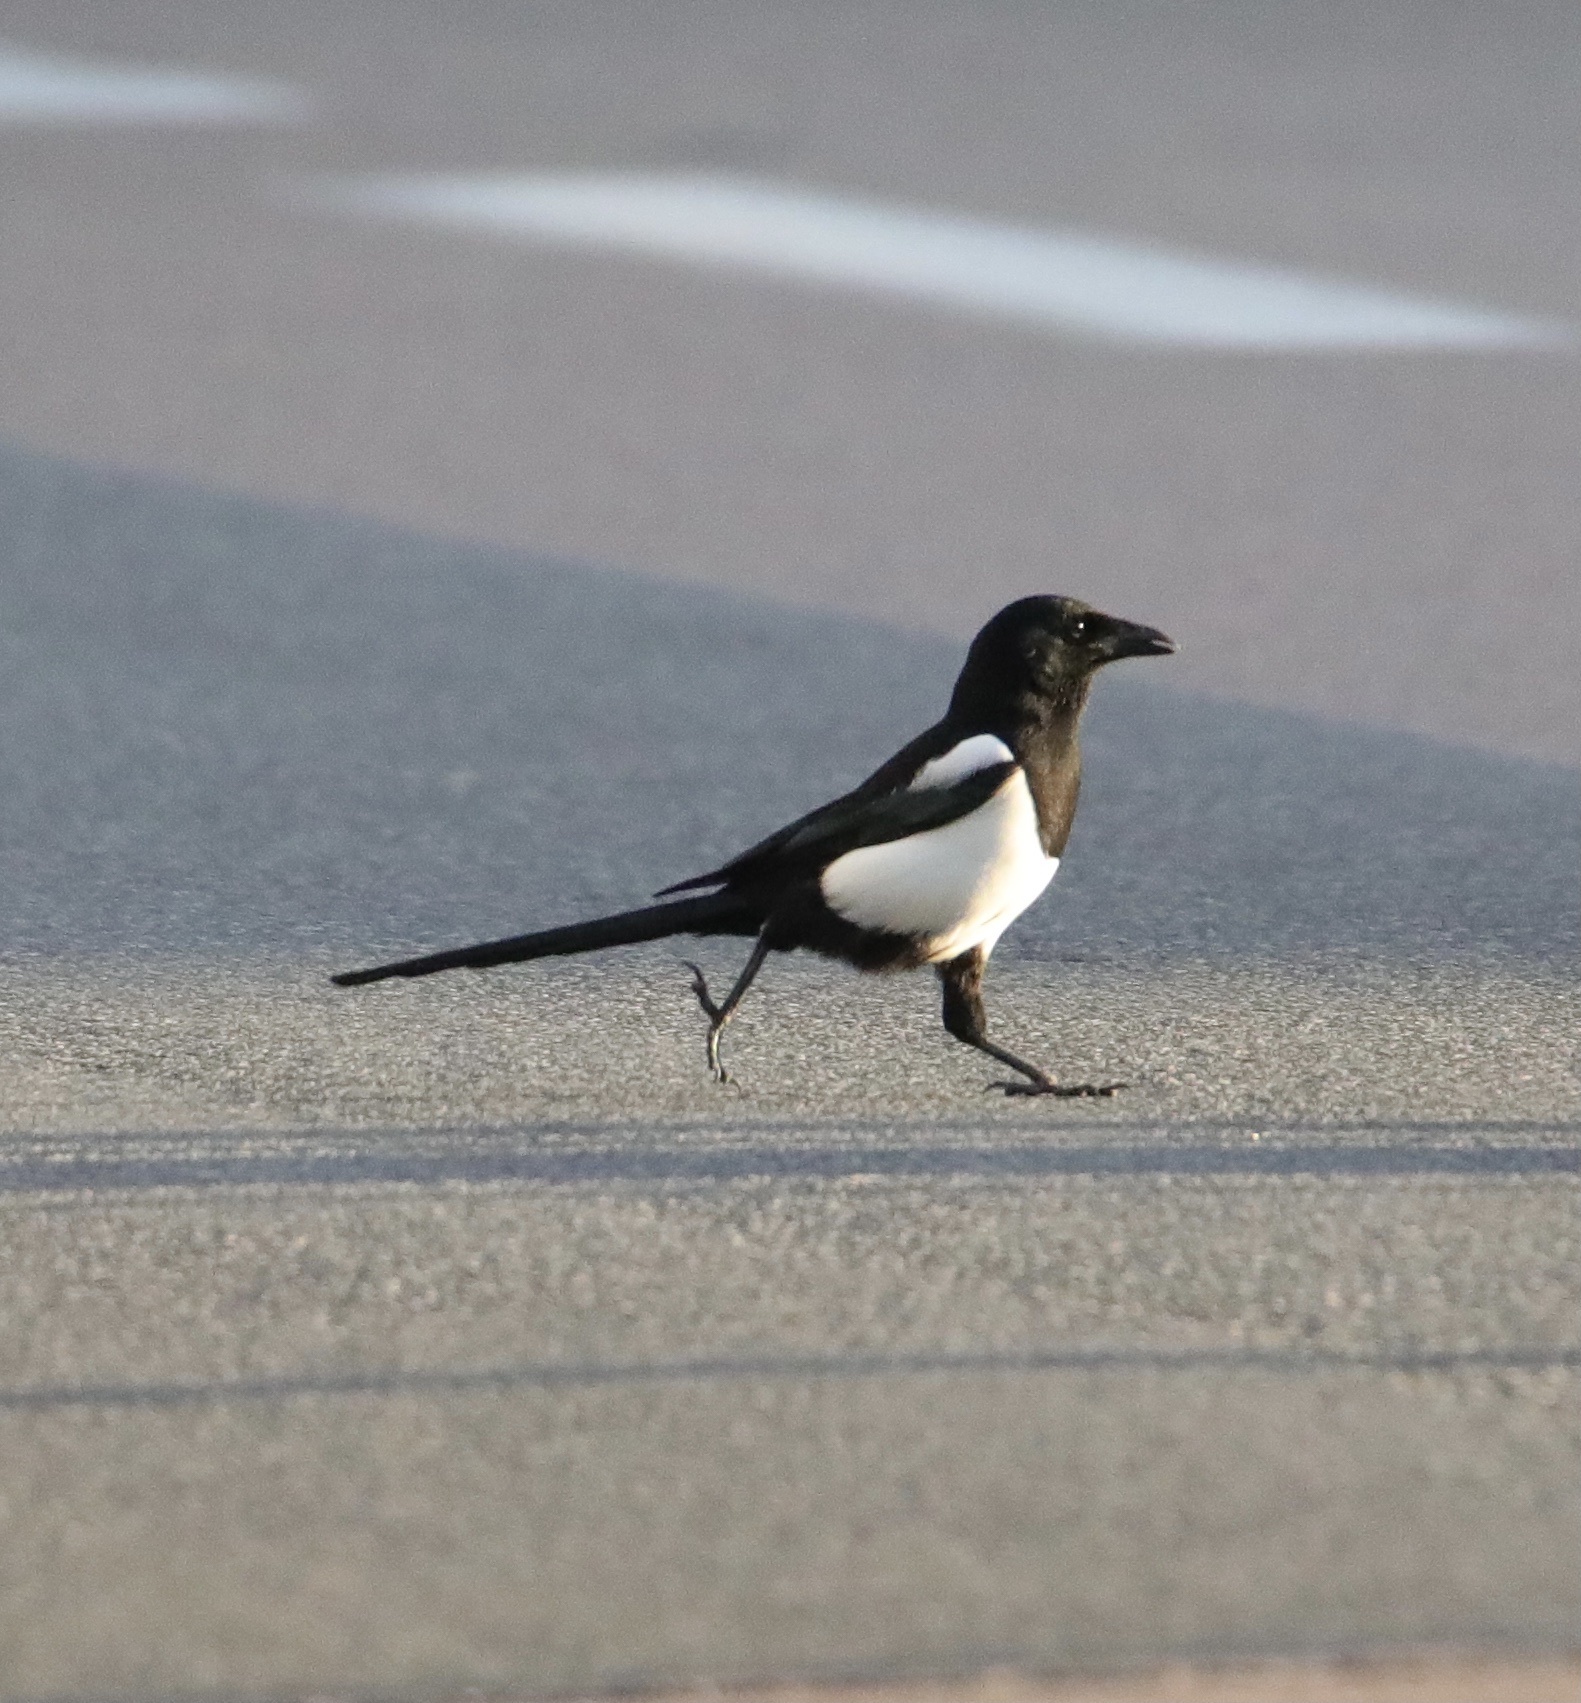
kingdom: Animalia
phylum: Chordata
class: Aves
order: Passeriformes
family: Corvidae
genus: Pica
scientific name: Pica pica
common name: Eurasian magpie
